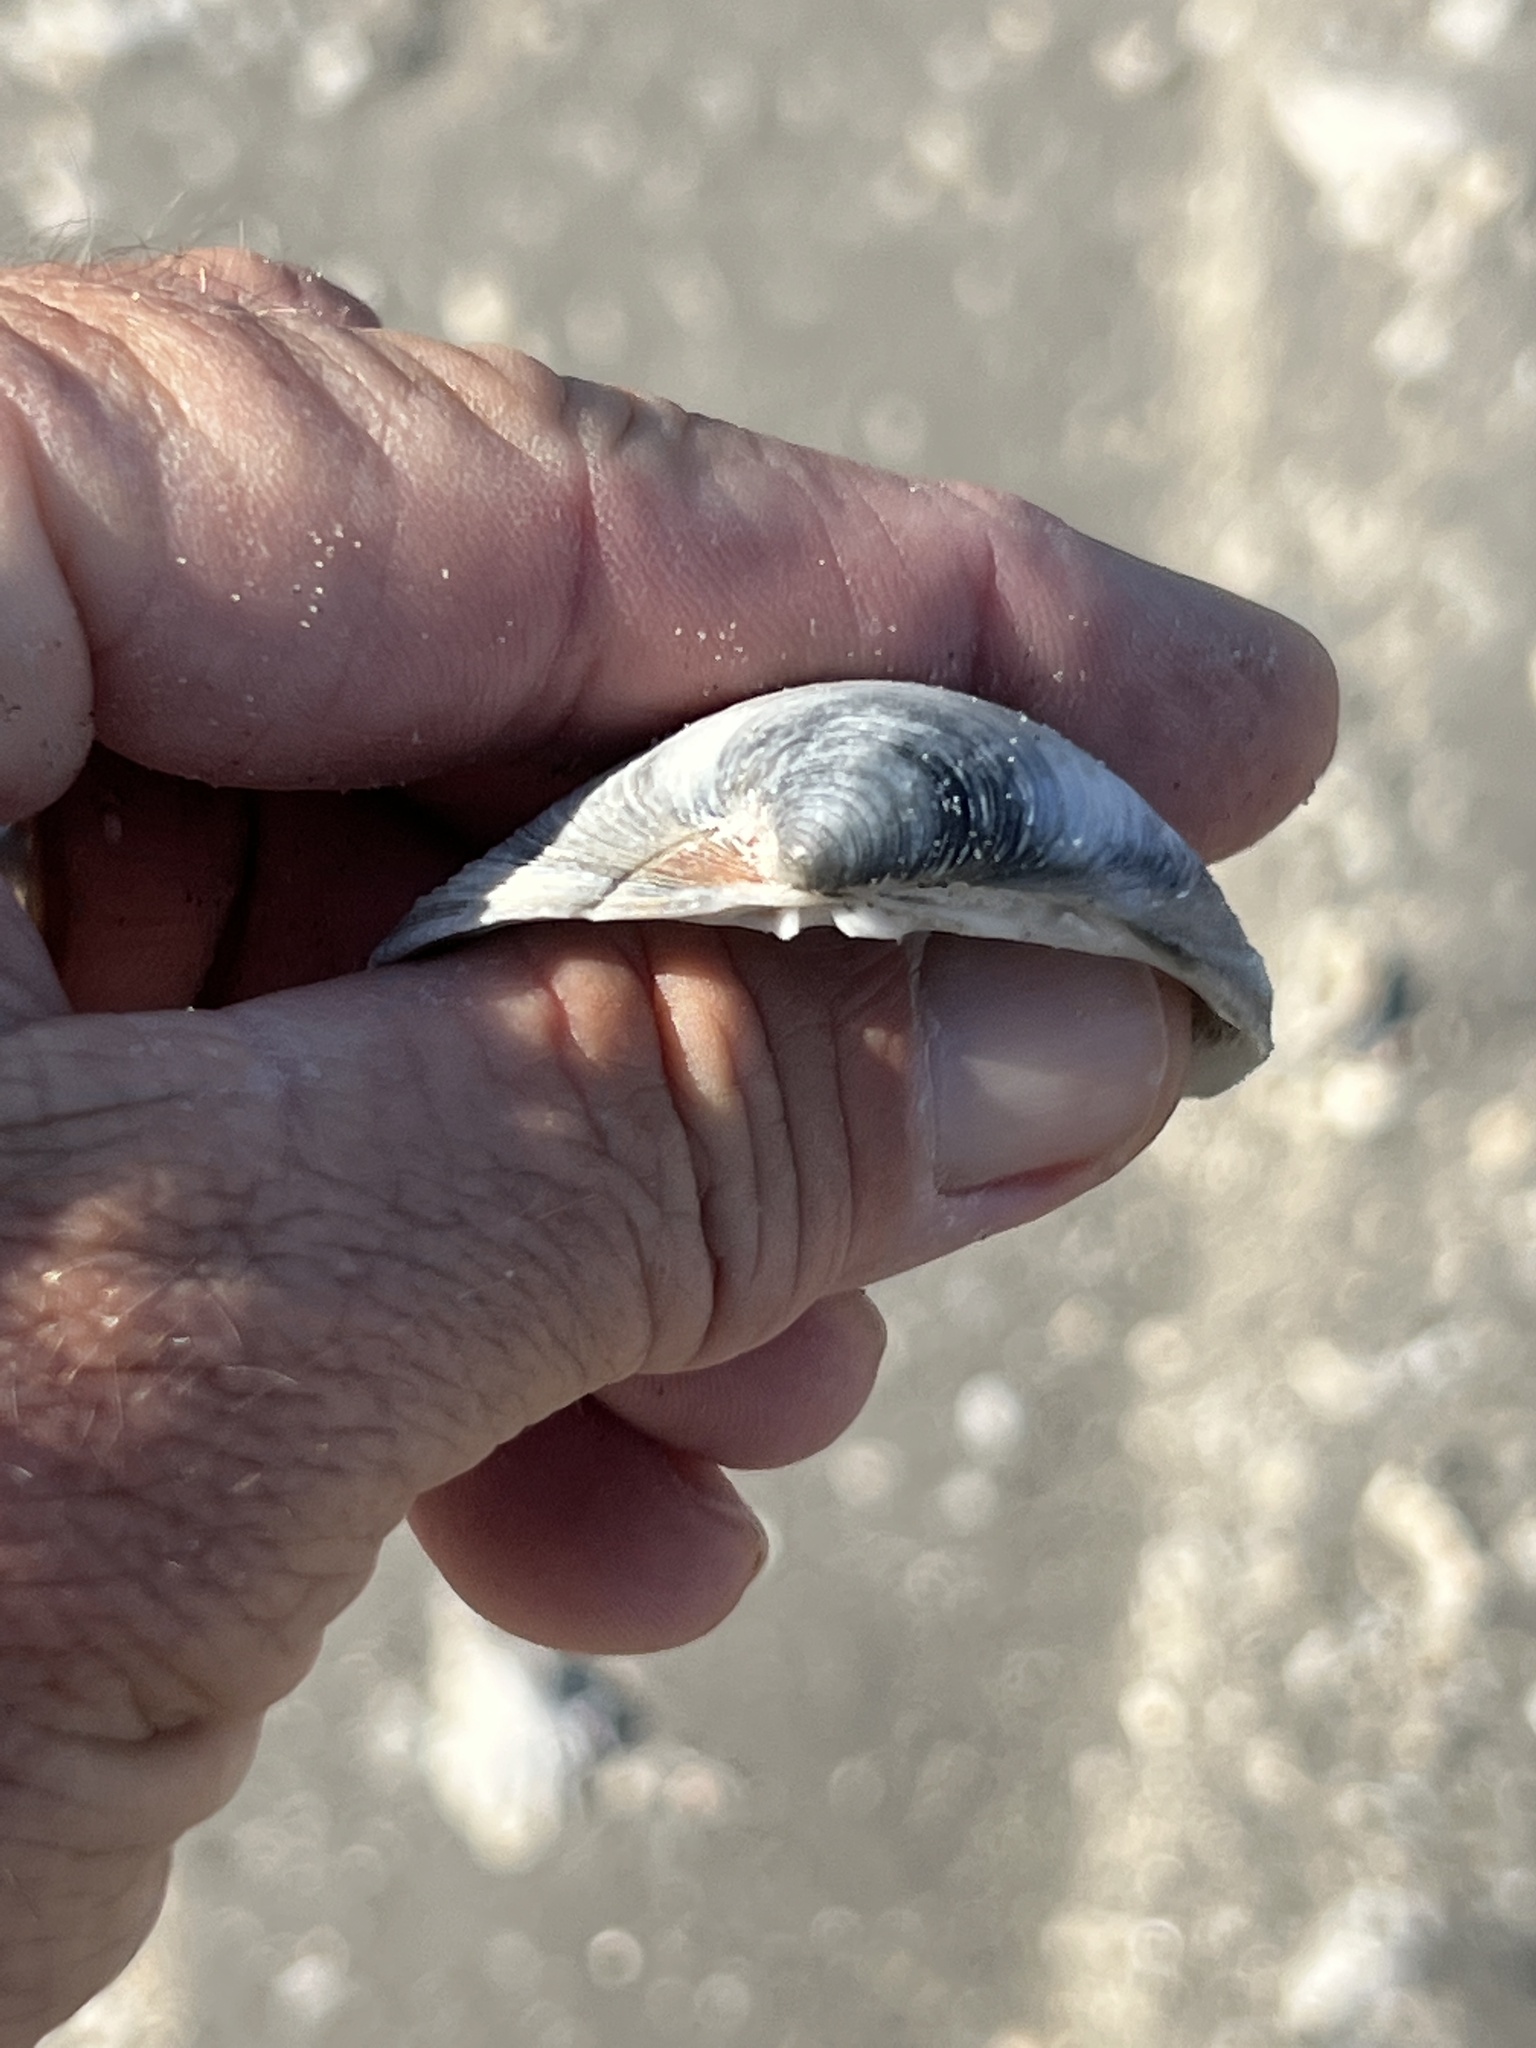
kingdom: Animalia
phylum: Mollusca
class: Bivalvia
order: Venerida
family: Veneridae
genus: Mercenaria
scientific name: Mercenaria texana
